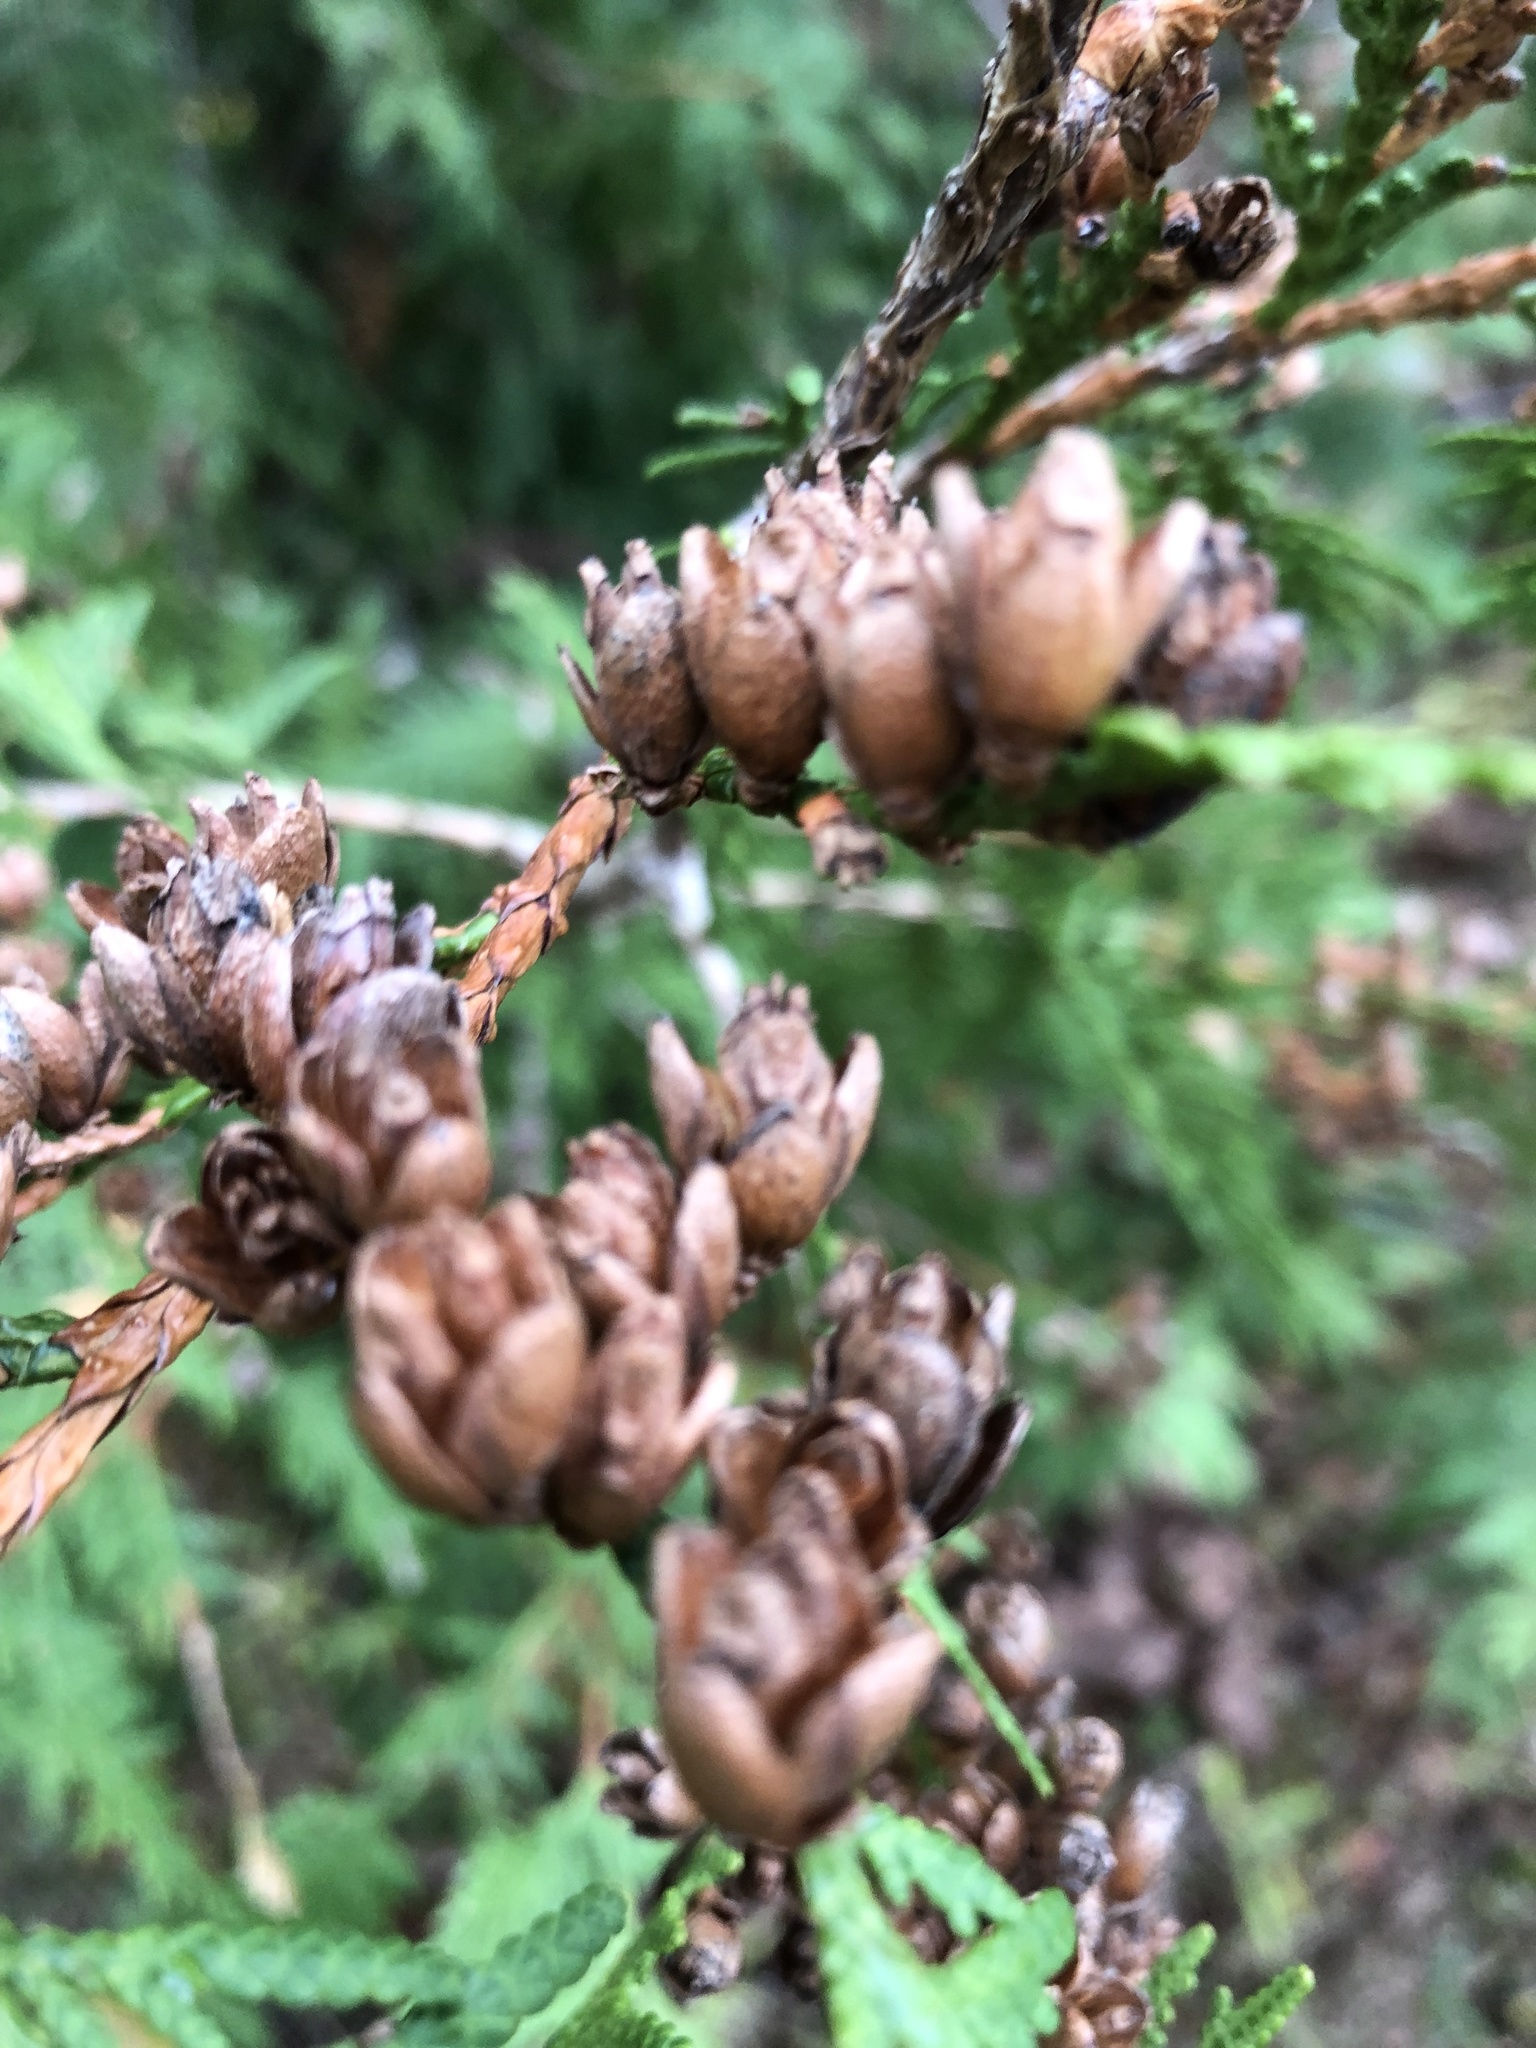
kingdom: Plantae
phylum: Tracheophyta
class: Pinopsida
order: Pinales
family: Cupressaceae
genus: Thuja
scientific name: Thuja occidentalis
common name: Northern white-cedar
